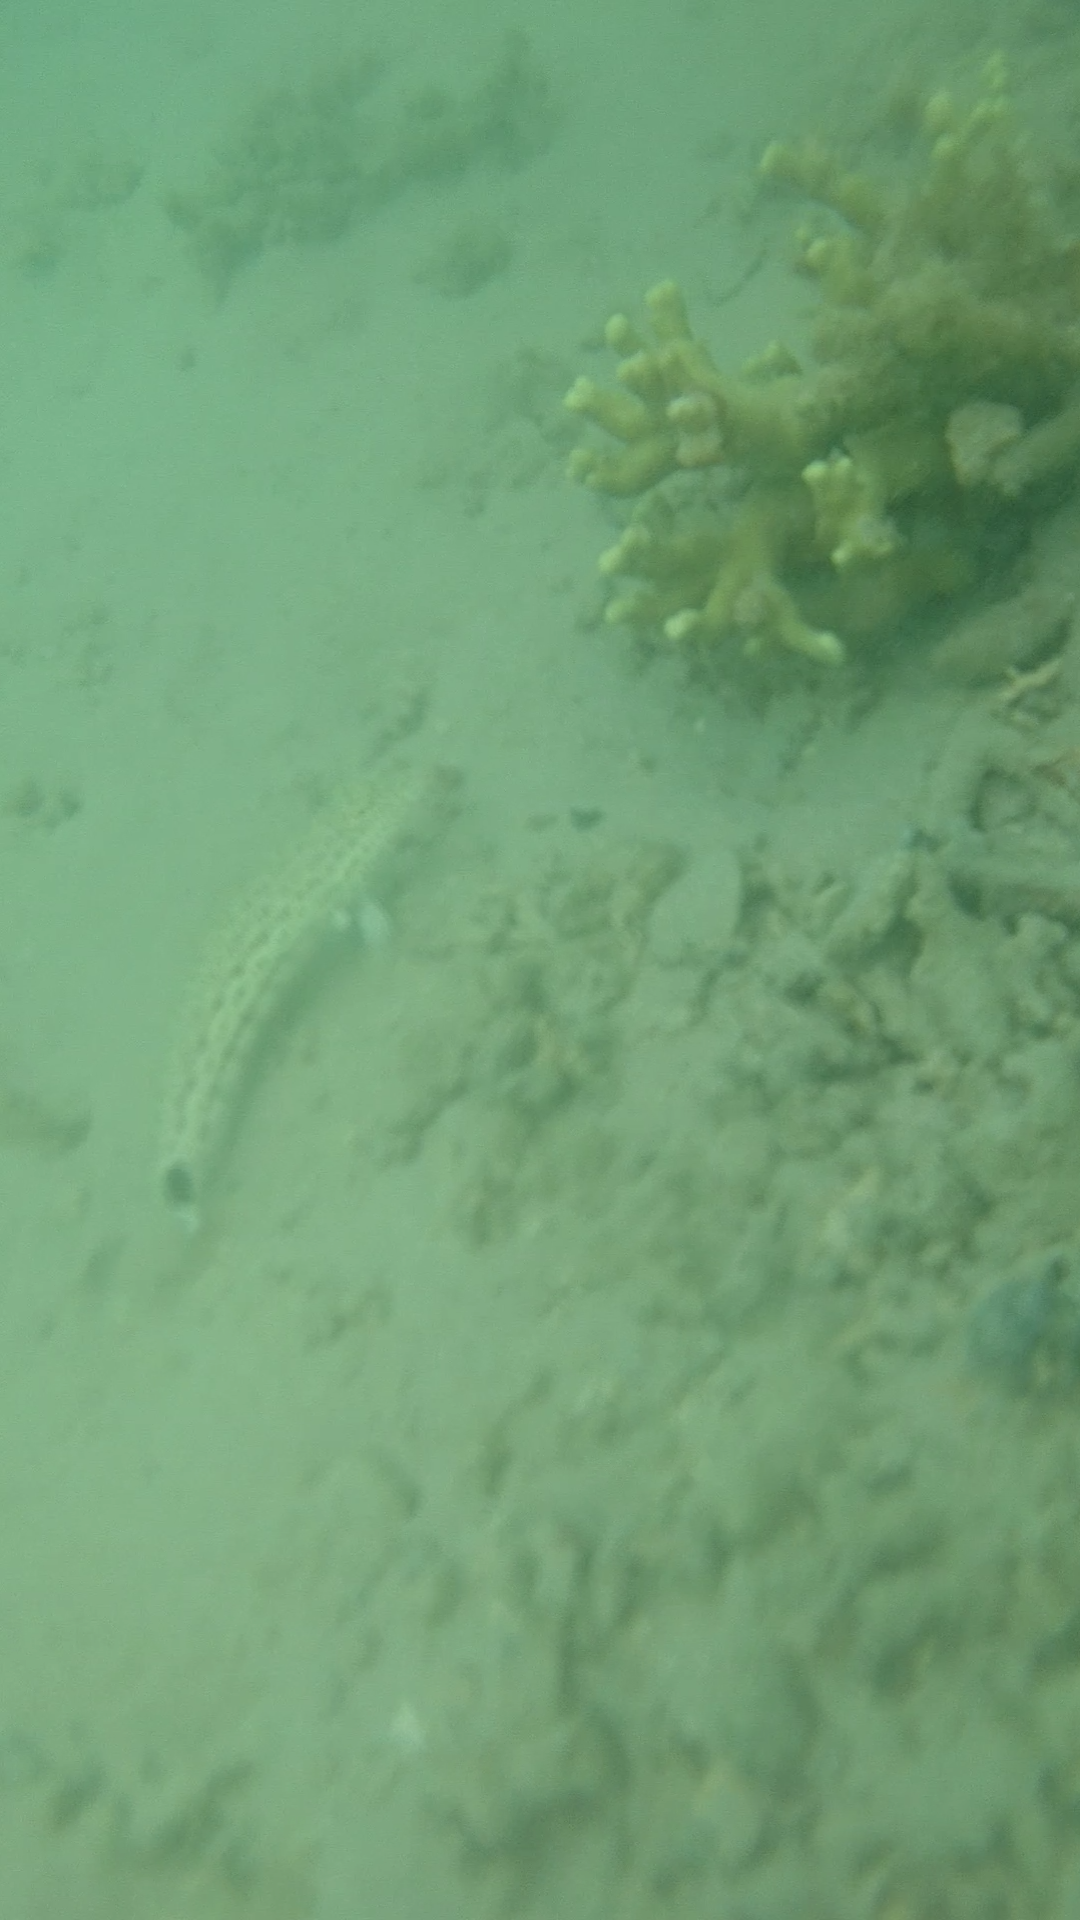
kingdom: Animalia
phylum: Chordata
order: Perciformes
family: Pinguipedidae
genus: Parapercis
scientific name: Parapercis pacifica
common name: Speckled sandperch
